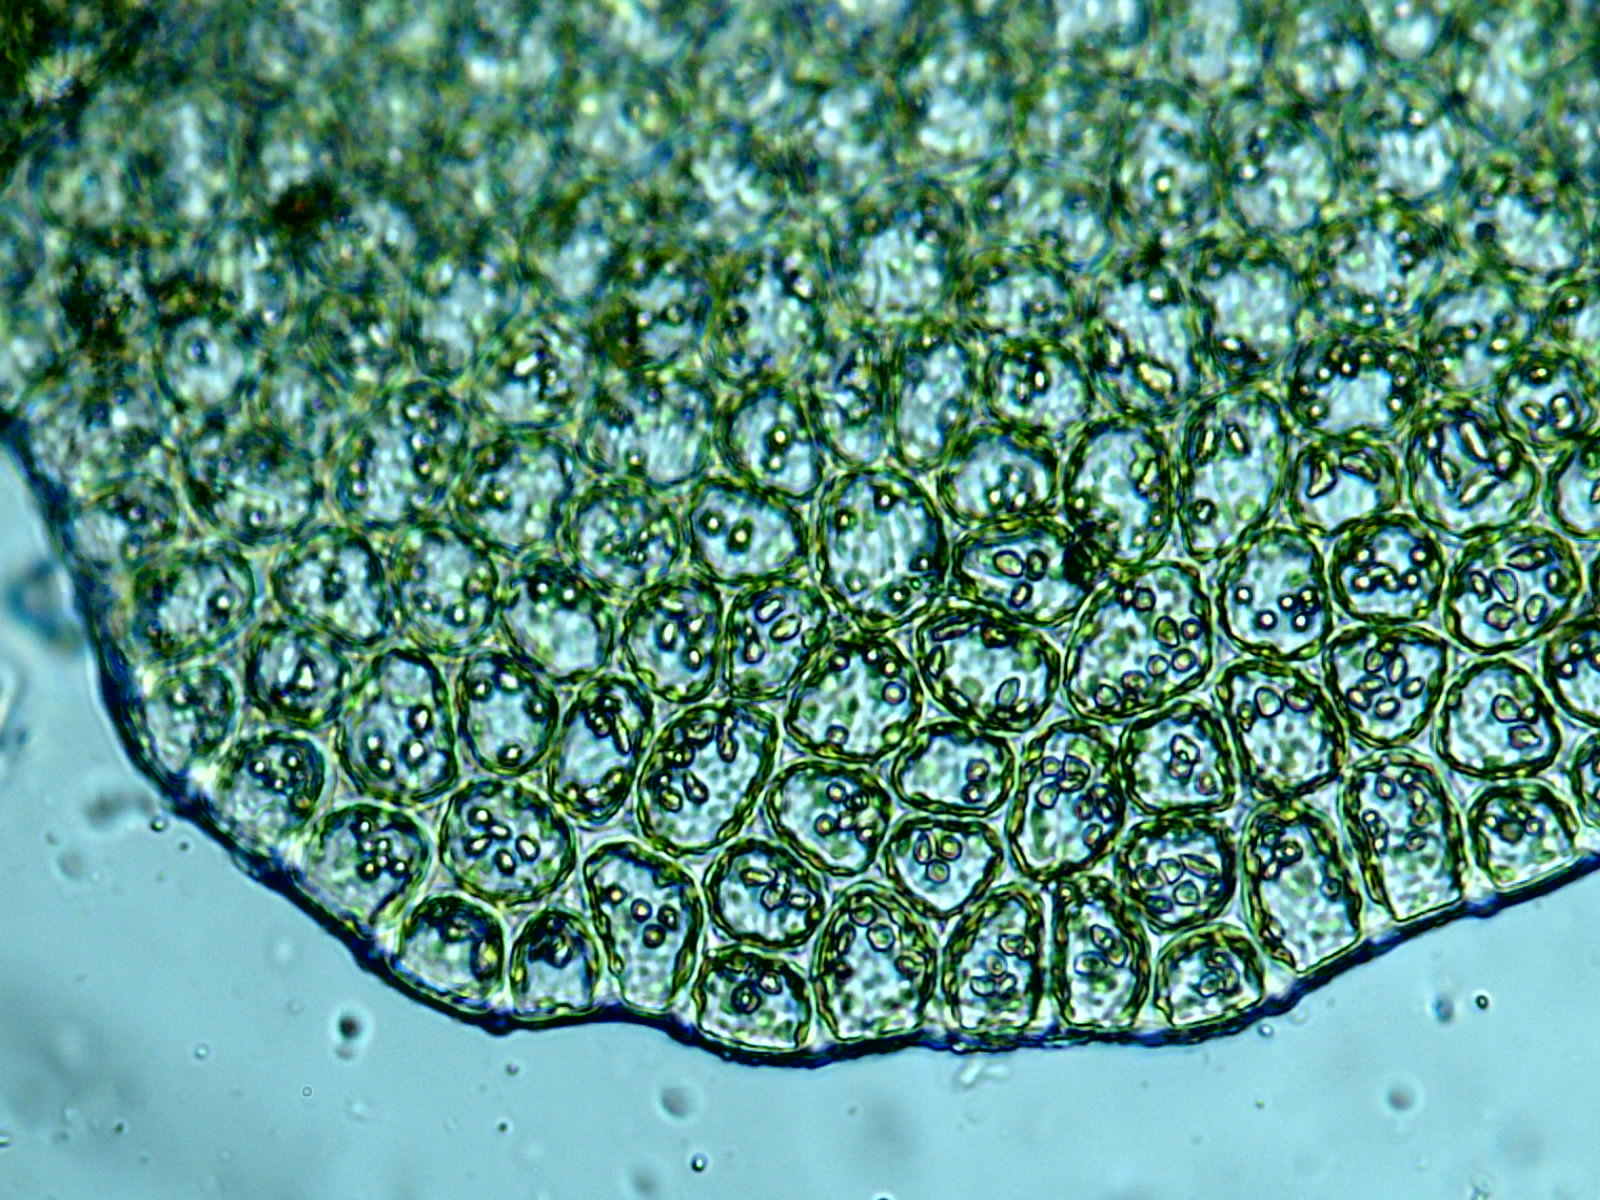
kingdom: Plantae
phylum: Marchantiophyta
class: Jungermanniopsida
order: Jungermanniales
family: Adelanthaceae
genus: Syzygiella
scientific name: Syzygiella autumnalis
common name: Jameson's liverwort
